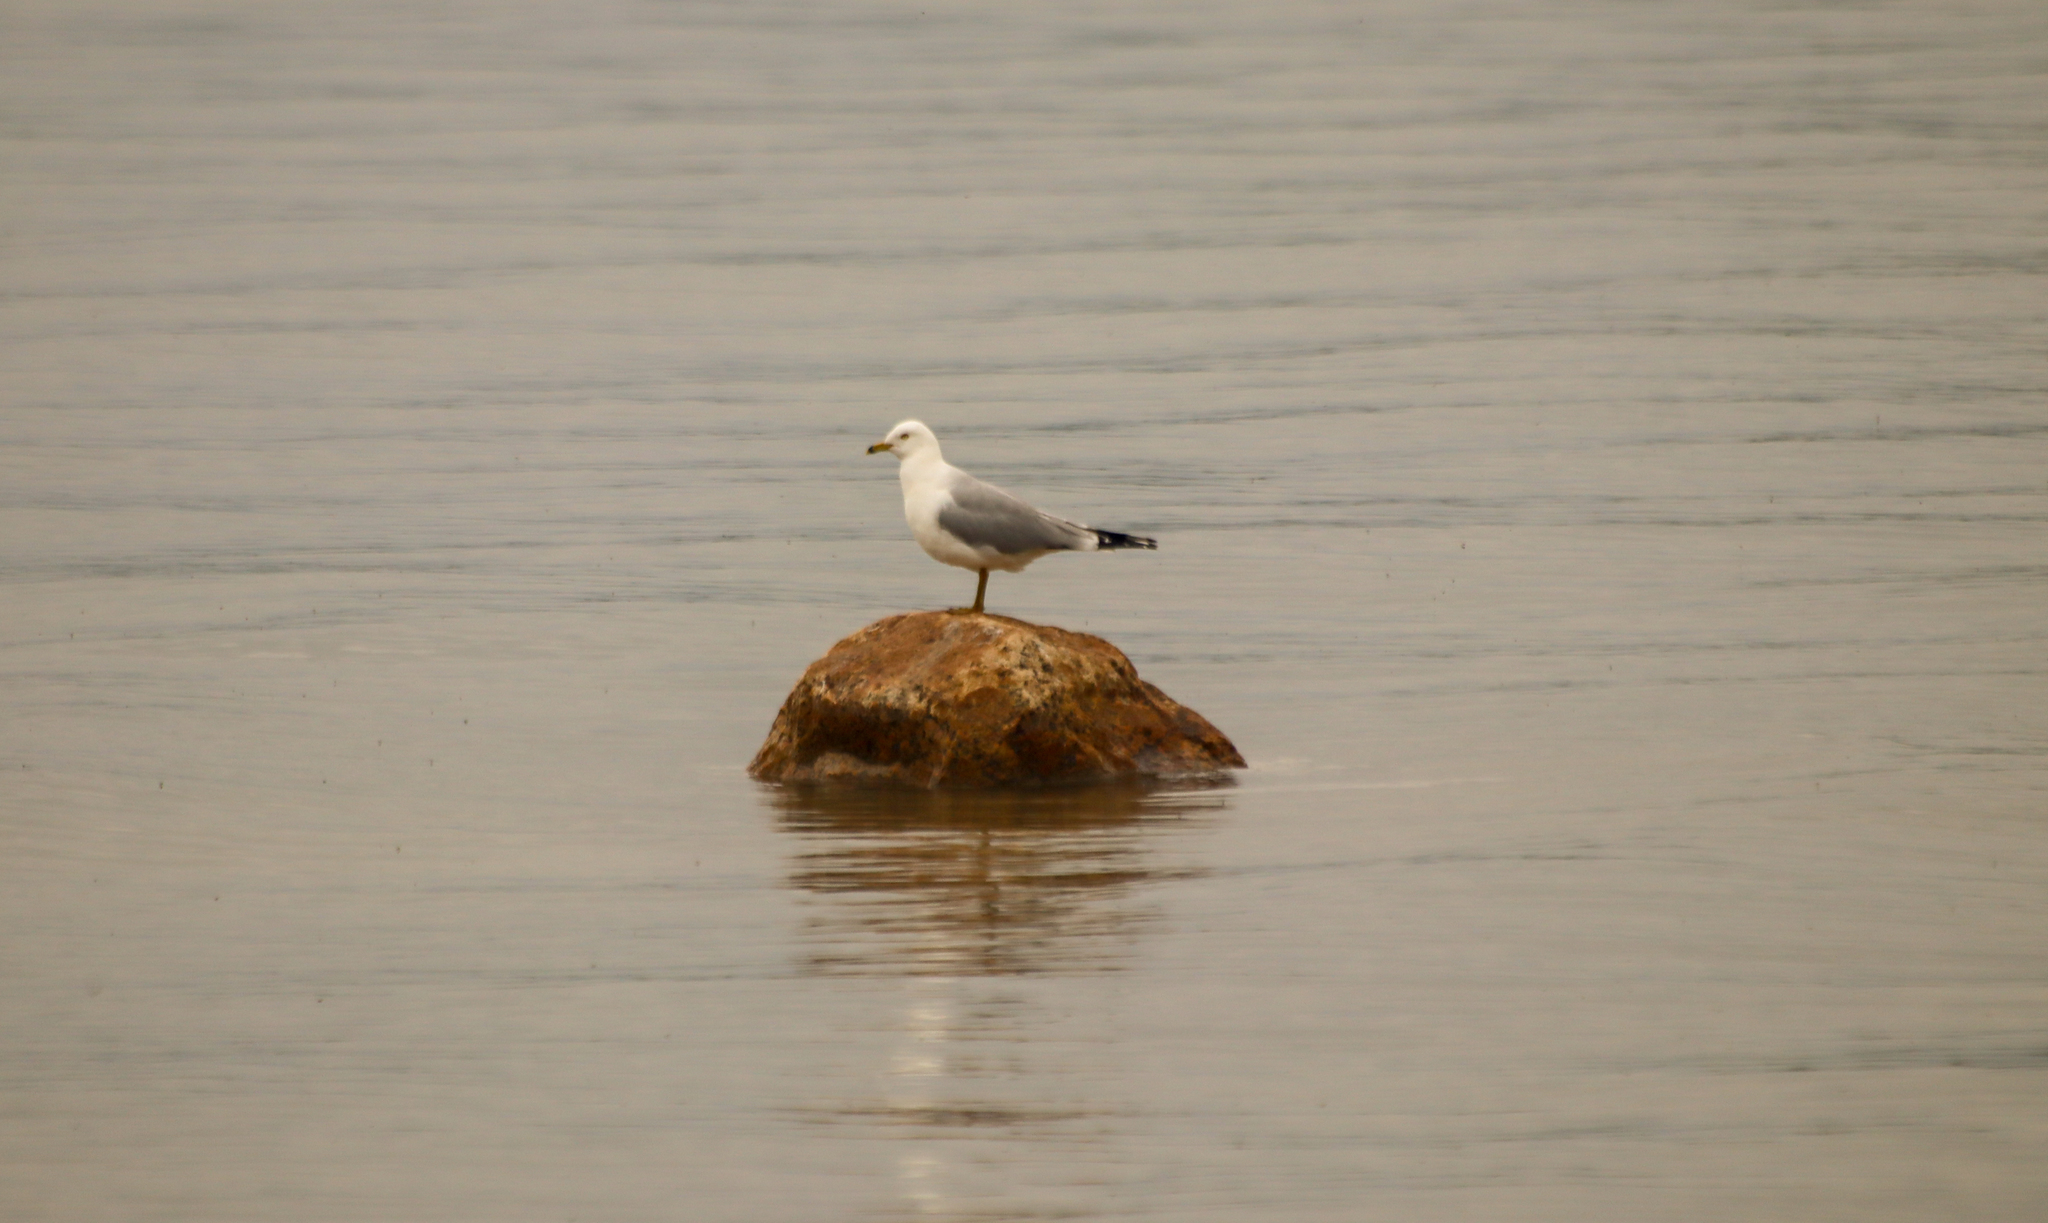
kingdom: Animalia
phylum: Chordata
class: Aves
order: Charadriiformes
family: Laridae
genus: Larus
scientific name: Larus delawarensis
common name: Ring-billed gull
